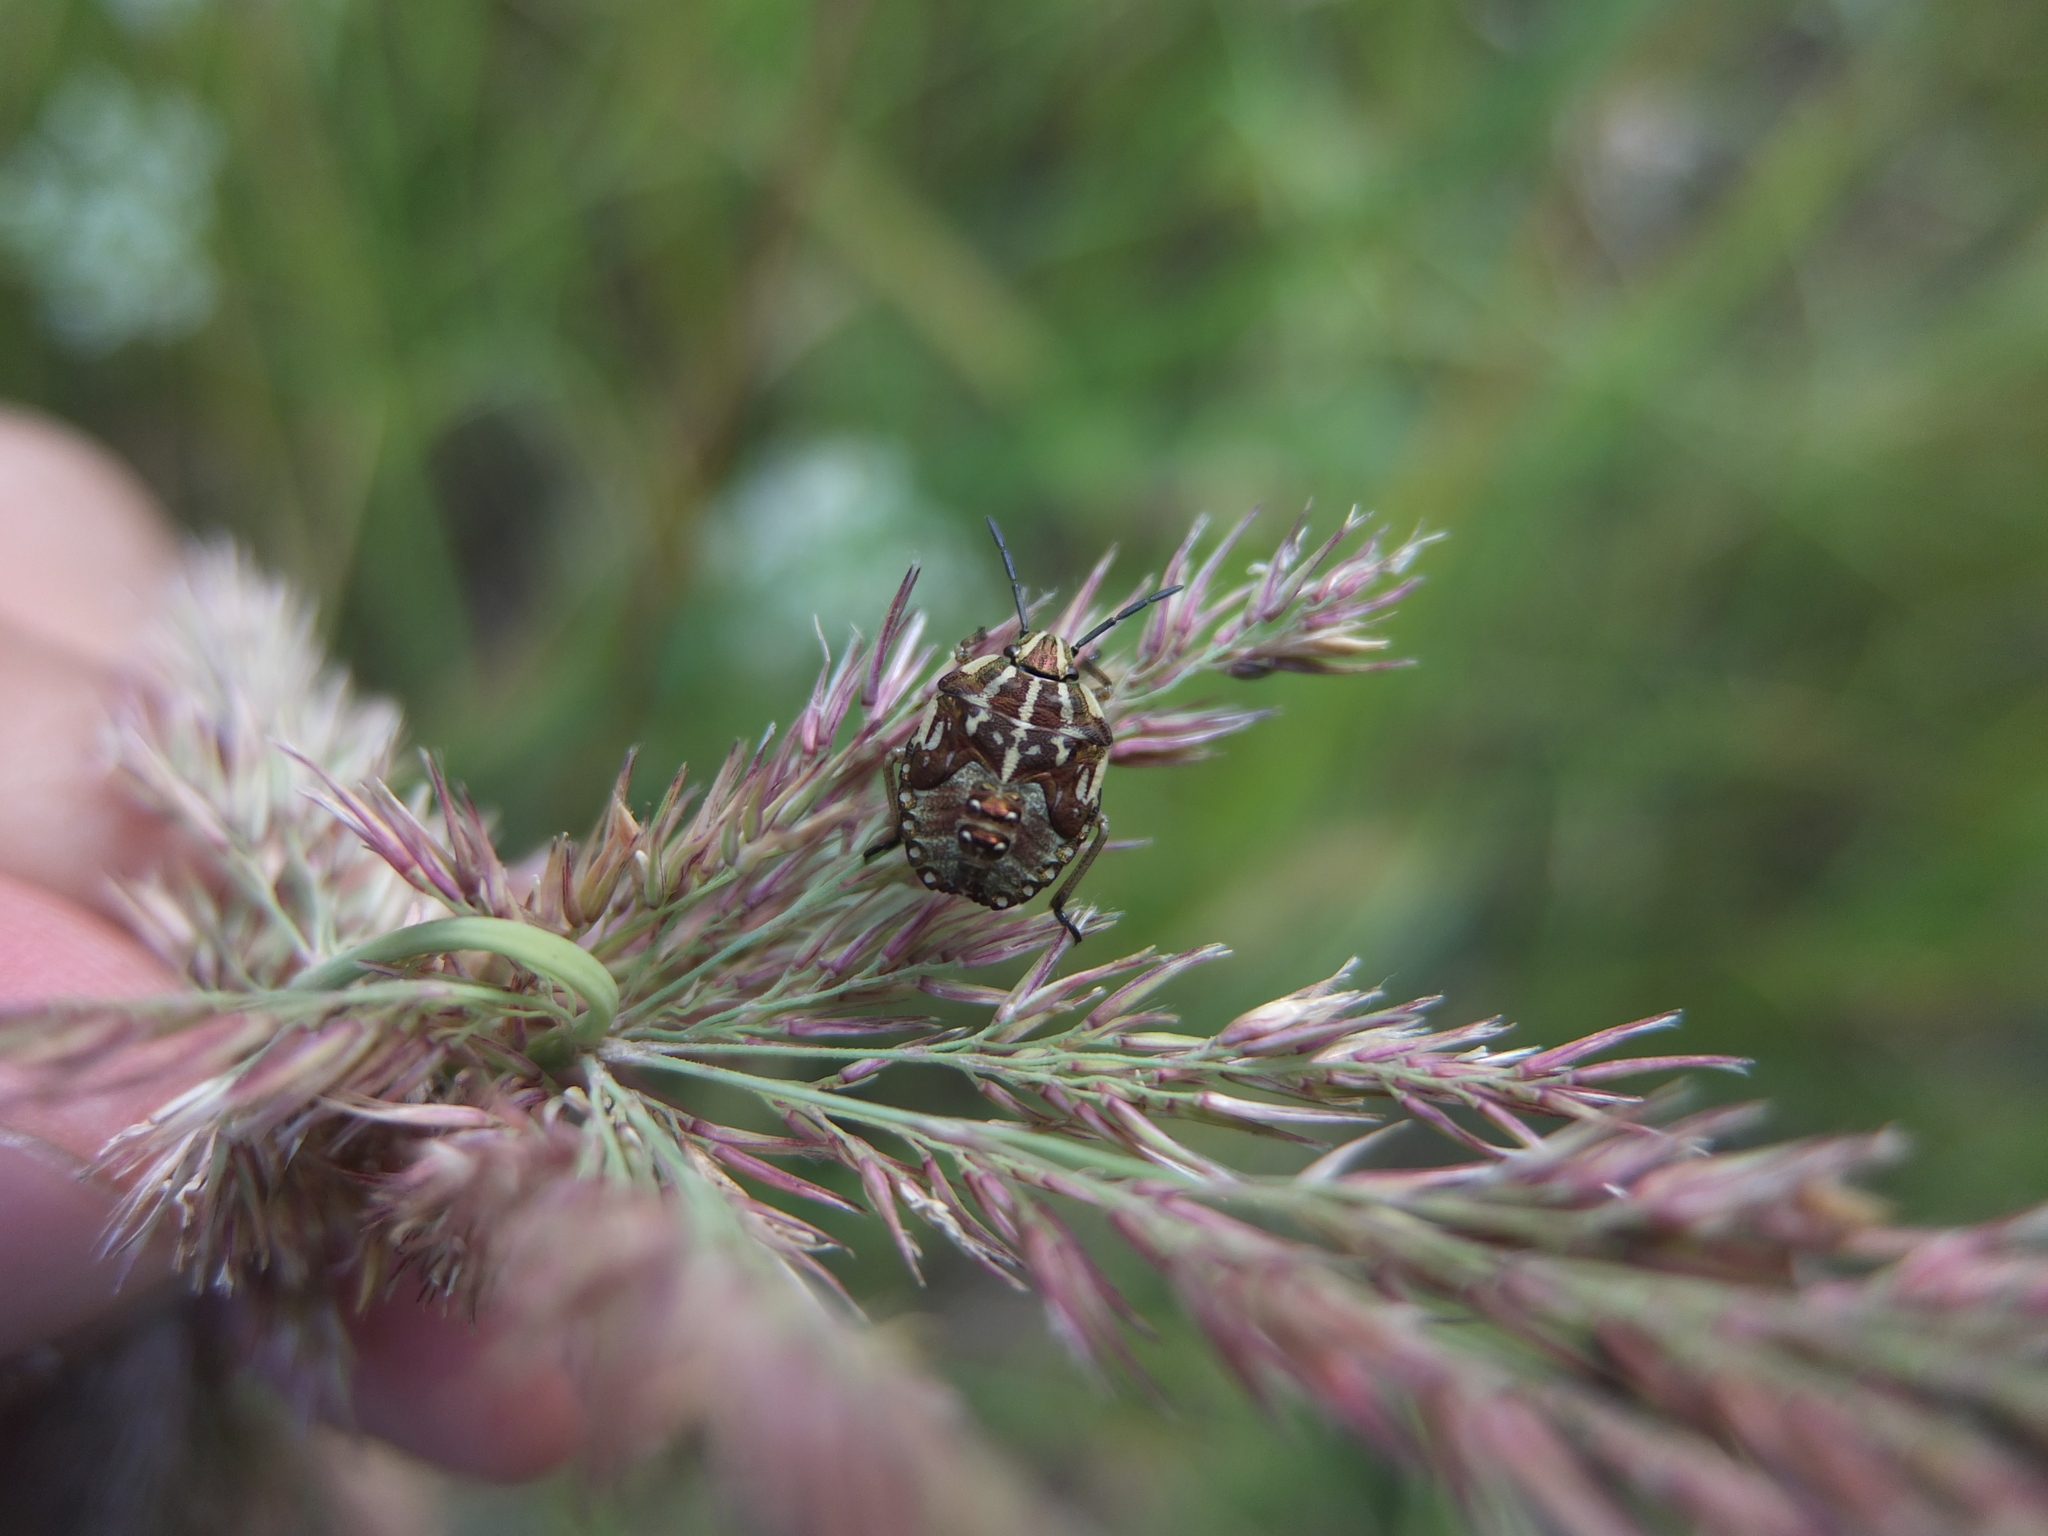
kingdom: Animalia
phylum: Arthropoda
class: Insecta
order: Hemiptera
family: Pentatomidae
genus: Carpocoris
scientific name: Carpocoris purpureipennis
